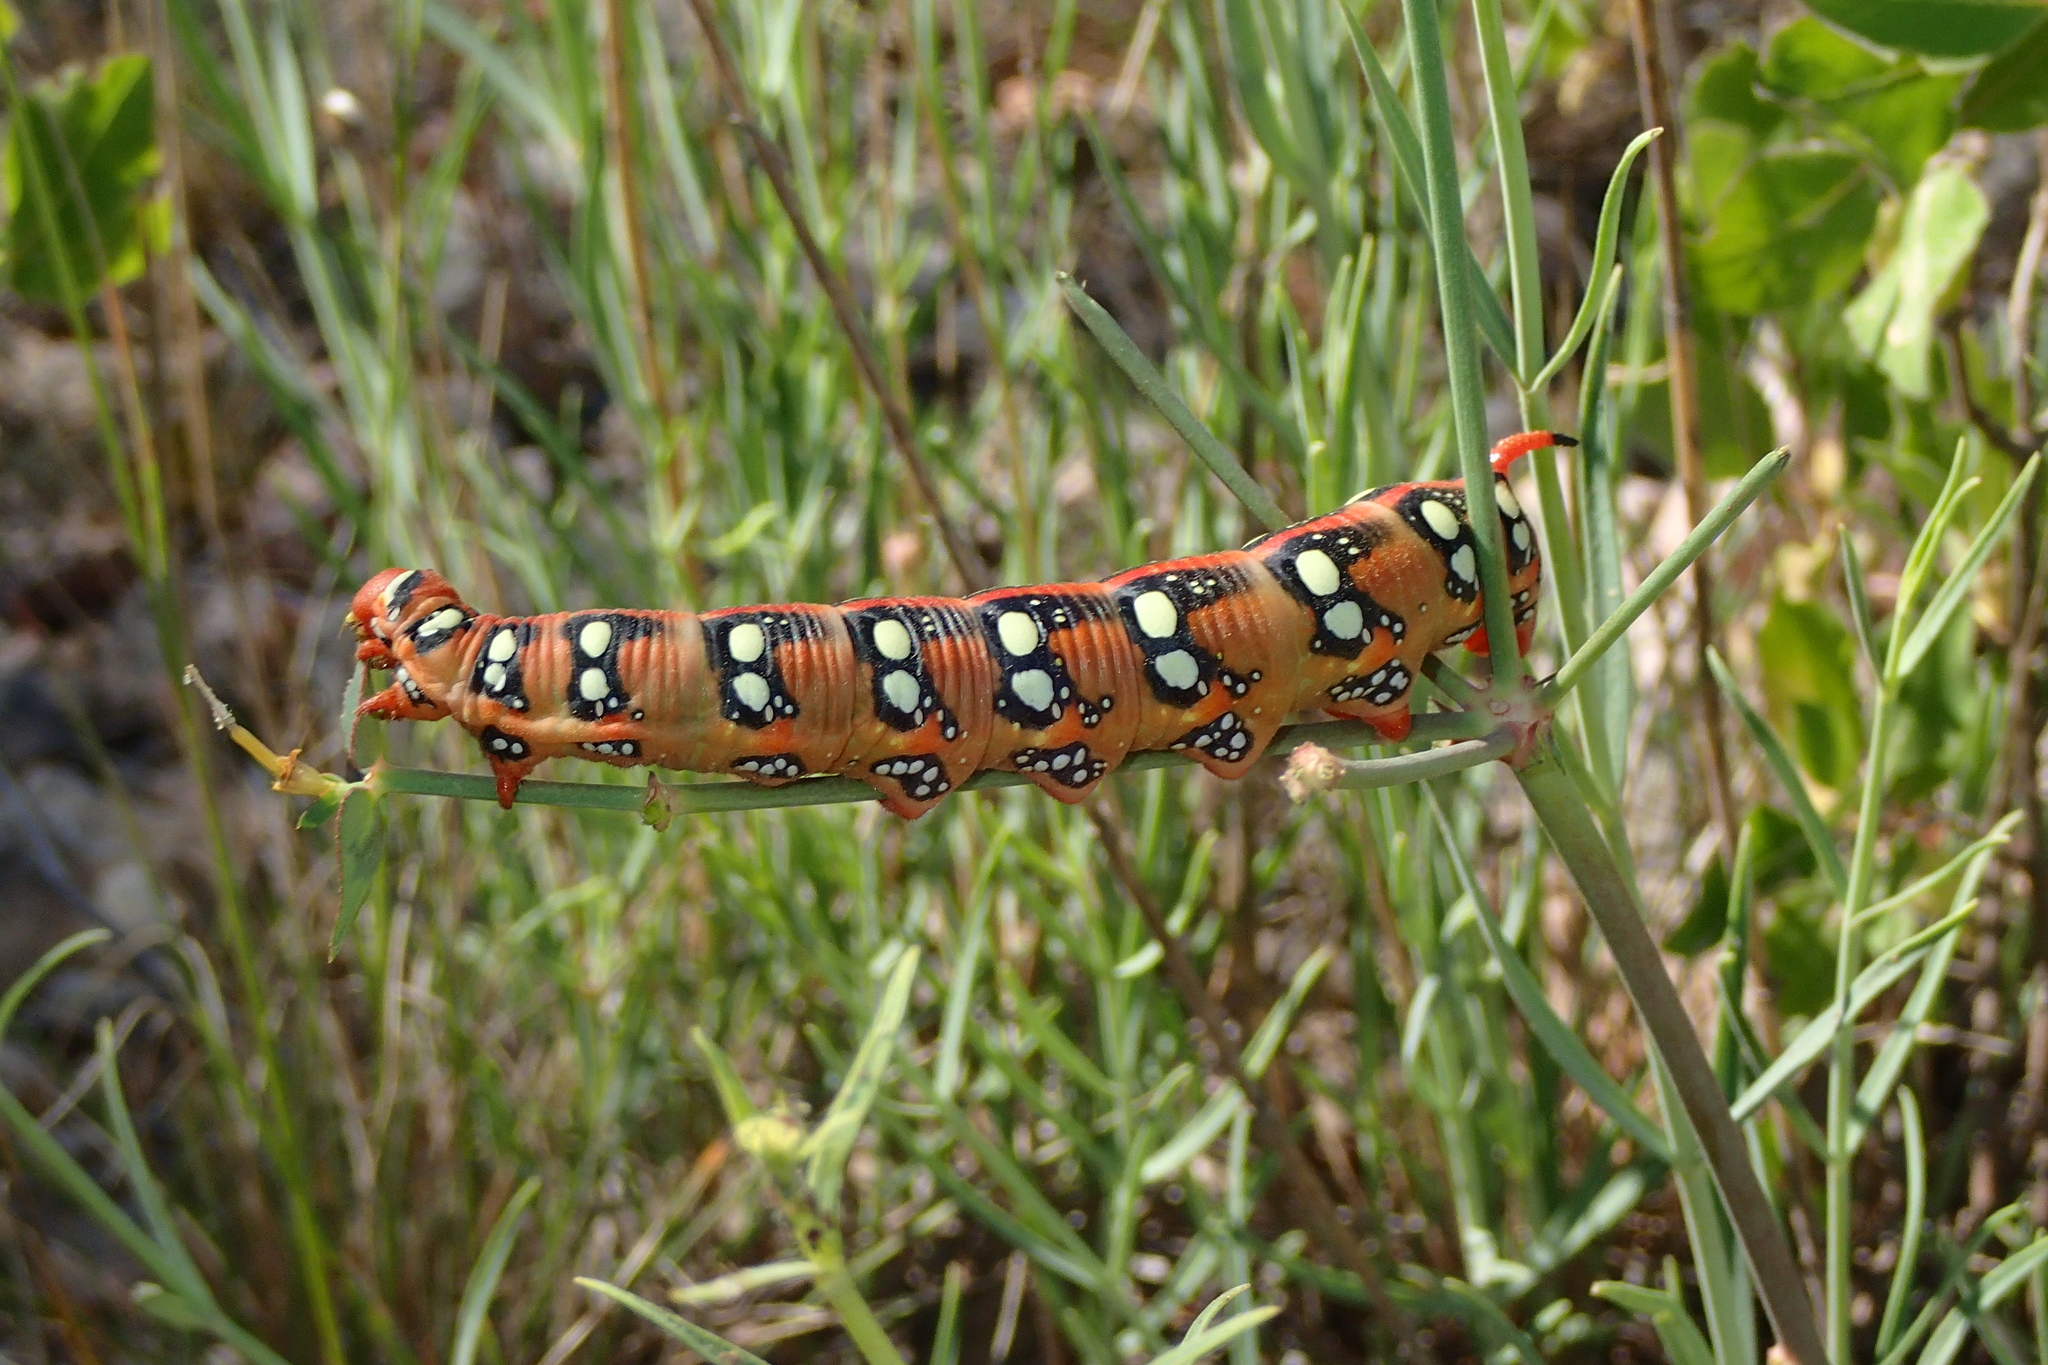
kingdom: Animalia
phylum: Arthropoda
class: Insecta
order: Lepidoptera
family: Sphingidae
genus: Hyles
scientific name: Hyles euphorbiae
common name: Spurge hawk-moth
